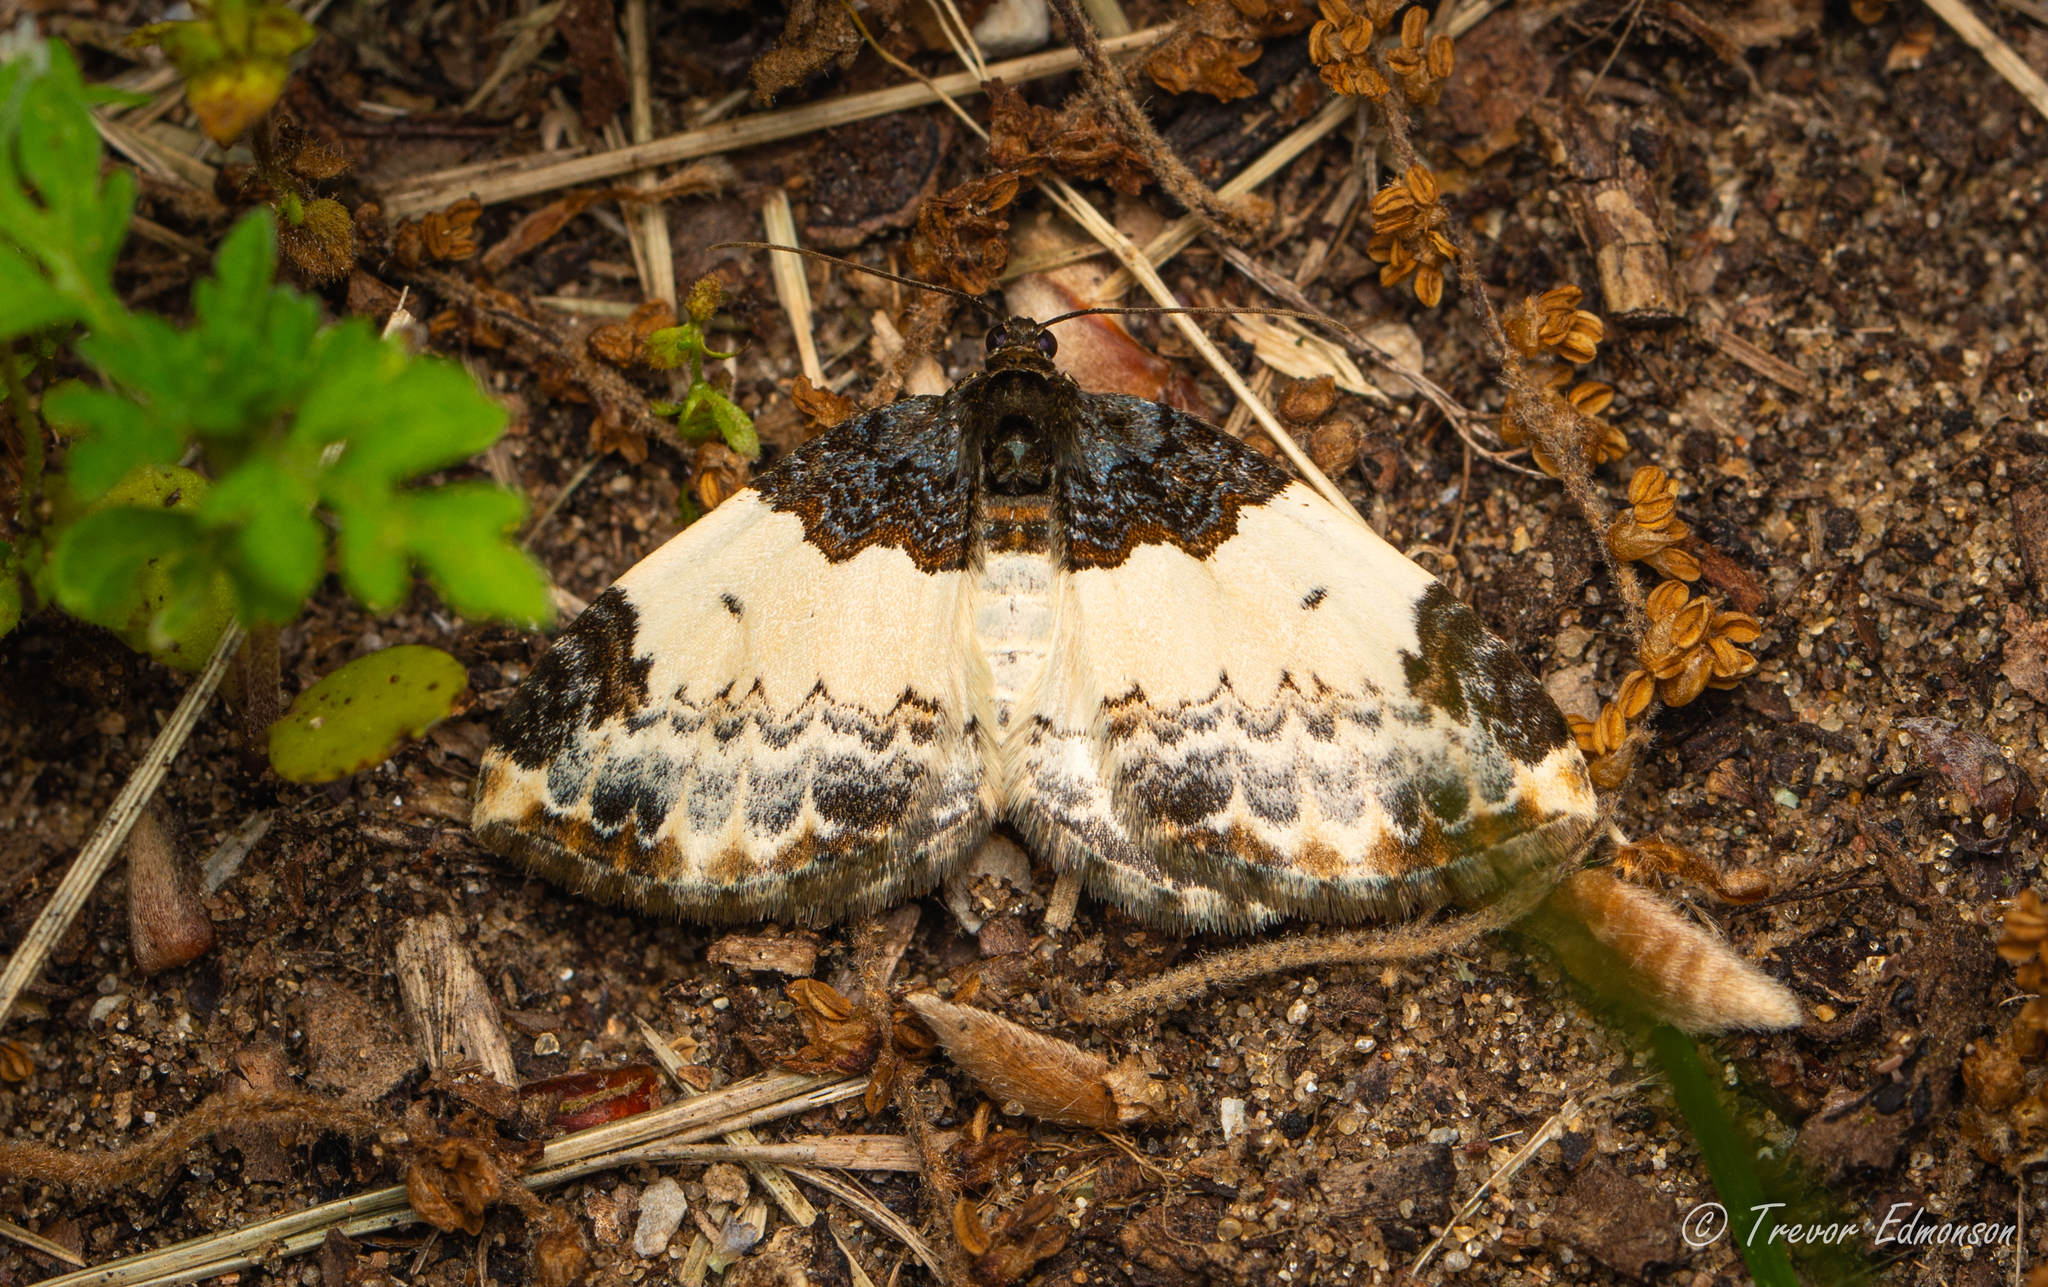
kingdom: Animalia
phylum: Arthropoda
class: Insecta
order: Lepidoptera
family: Geometridae
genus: Mesoleuca
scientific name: Mesoleuca ruficillata
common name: White-ribboned carpet moth
